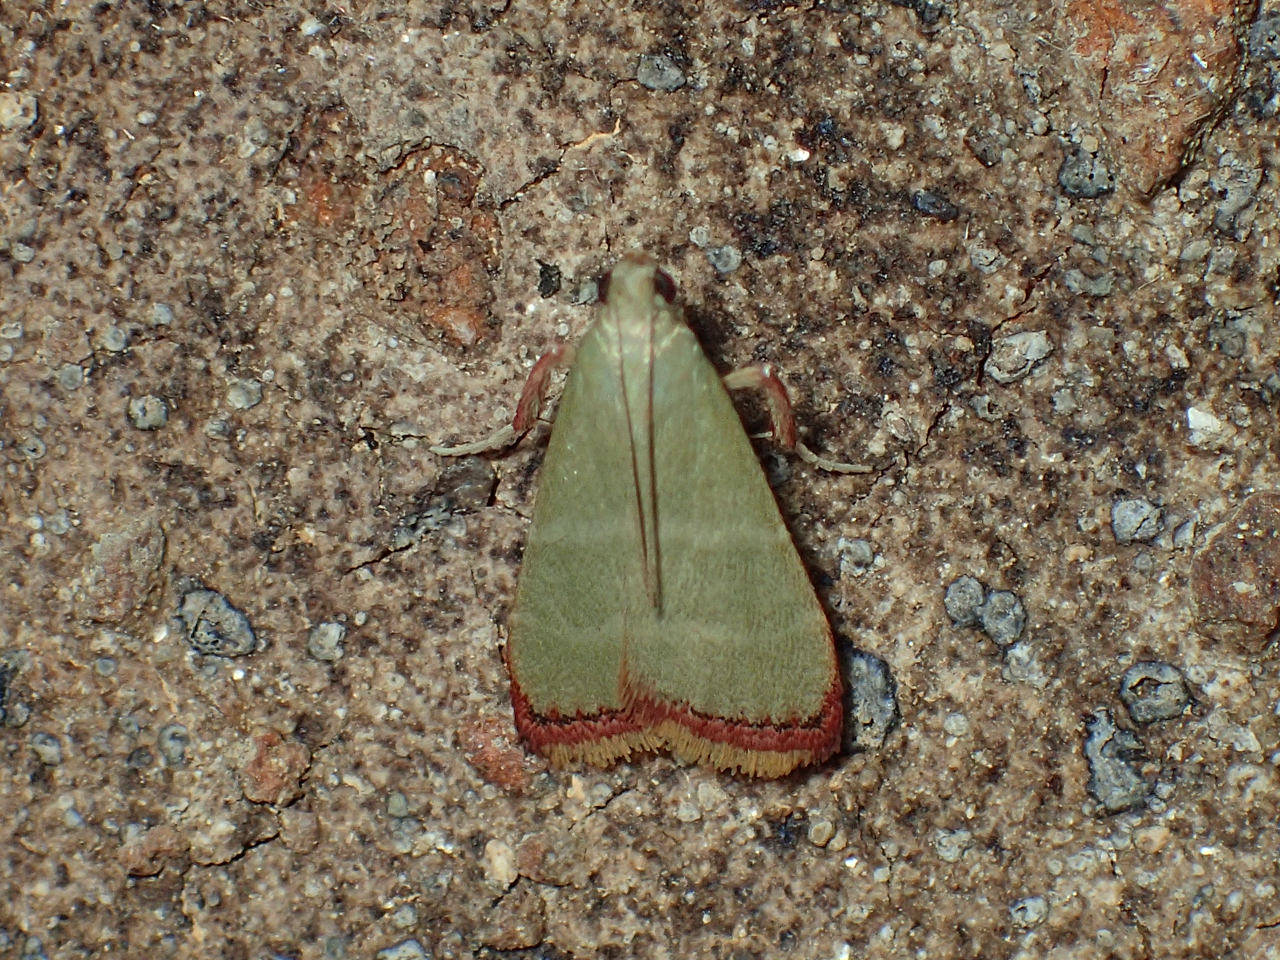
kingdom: Animalia
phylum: Arthropoda
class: Insecta
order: Lepidoptera
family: Pyralidae
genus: Arta
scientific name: Arta olivalis
